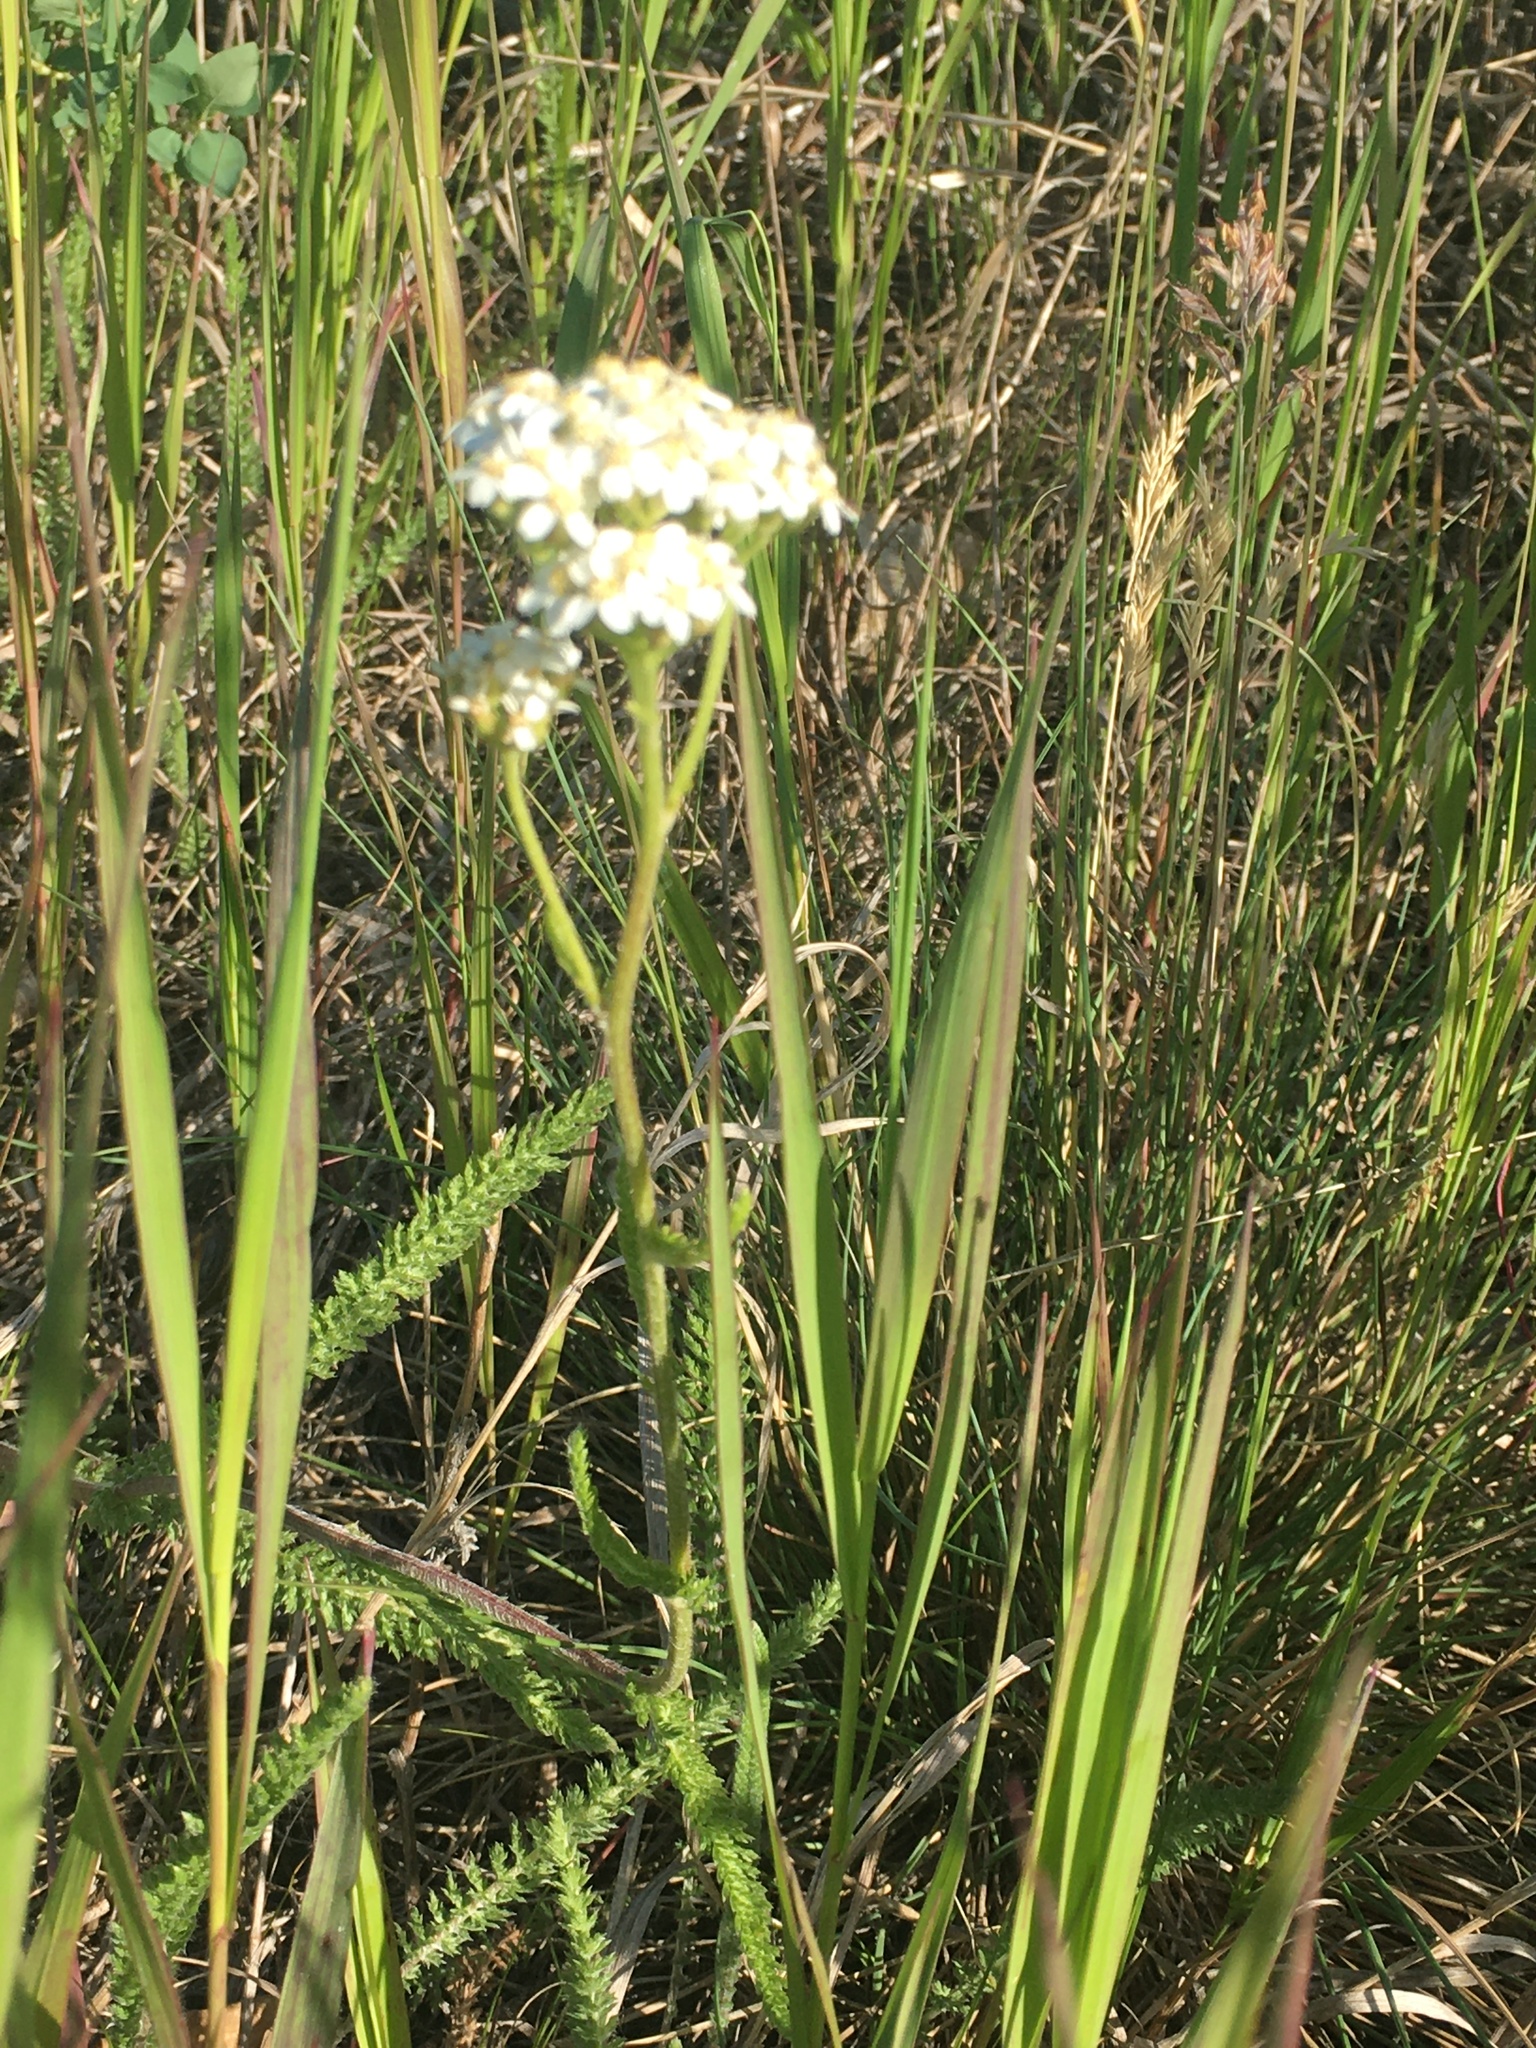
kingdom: Plantae
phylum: Tracheophyta
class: Magnoliopsida
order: Asterales
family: Asteraceae
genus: Achillea
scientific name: Achillea millefolium
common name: Yarrow
